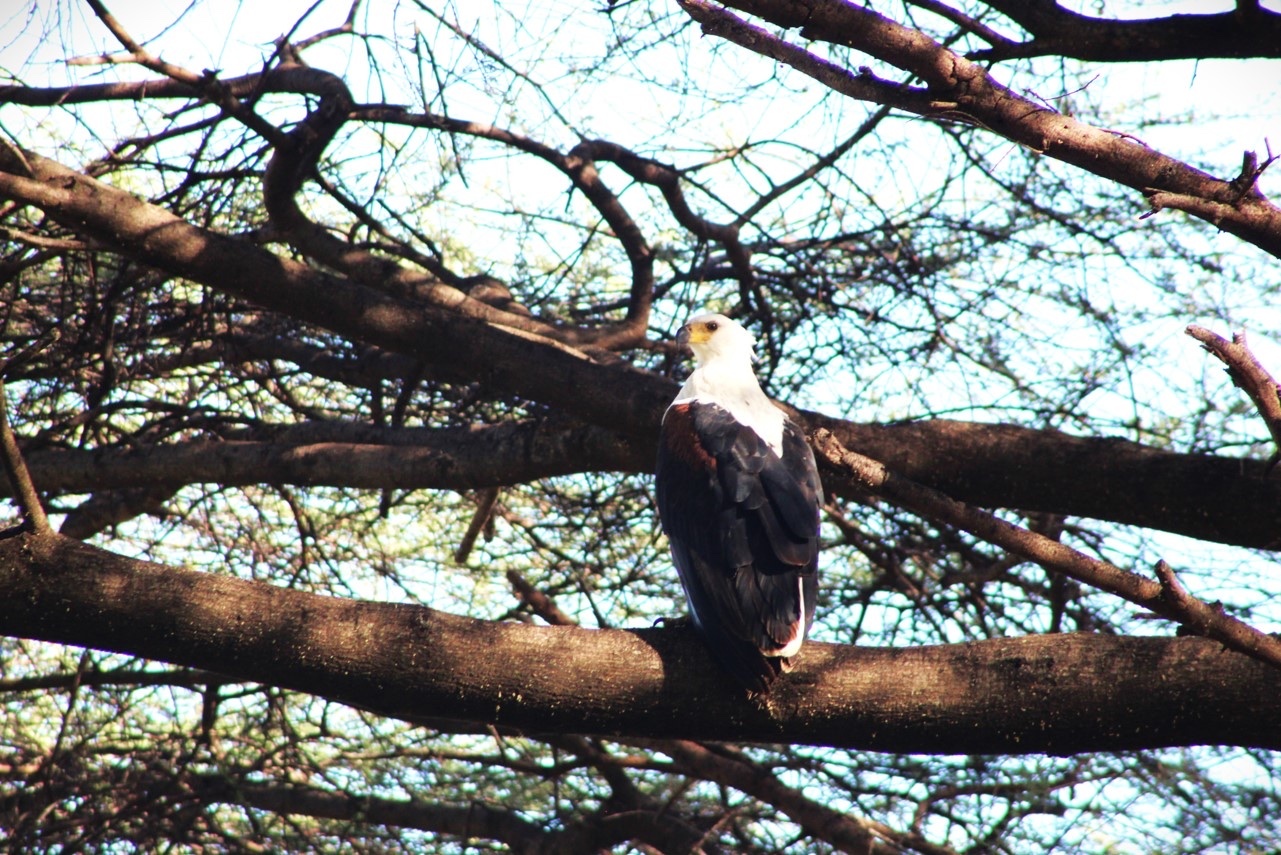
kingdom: Animalia
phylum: Chordata
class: Aves
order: Accipitriformes
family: Accipitridae
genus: Haliaeetus
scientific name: Haliaeetus vocifer
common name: African fish eagle
